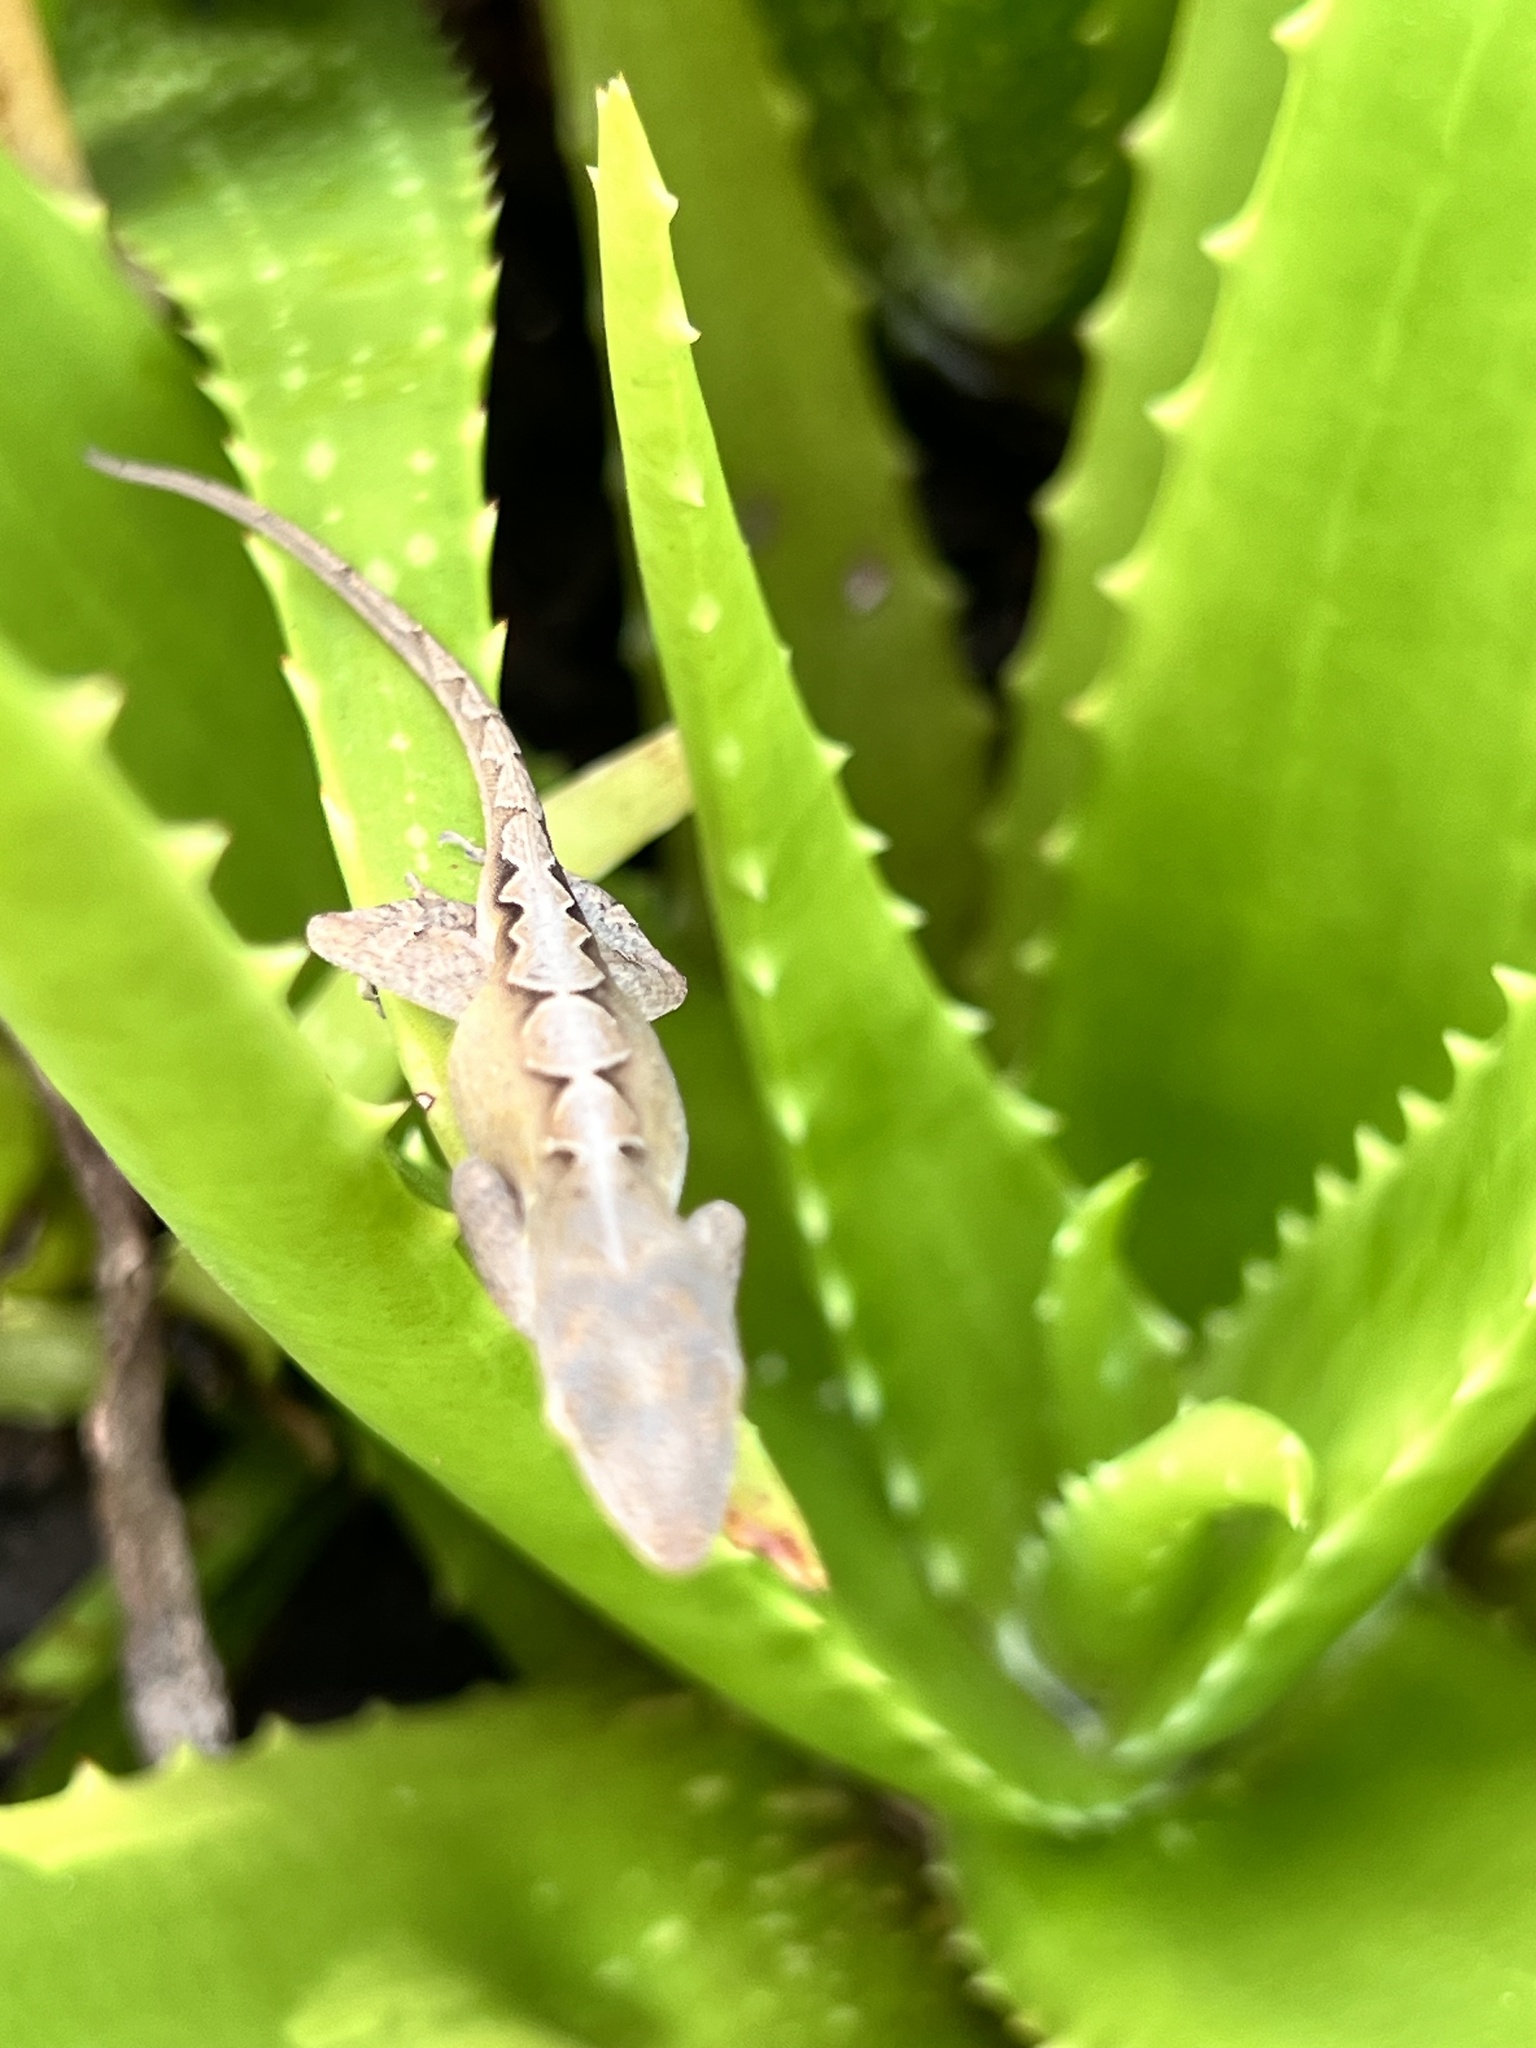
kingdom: Animalia
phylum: Chordata
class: Squamata
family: Dactyloidae
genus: Anolis
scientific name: Anolis sagrei
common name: Brown anole
